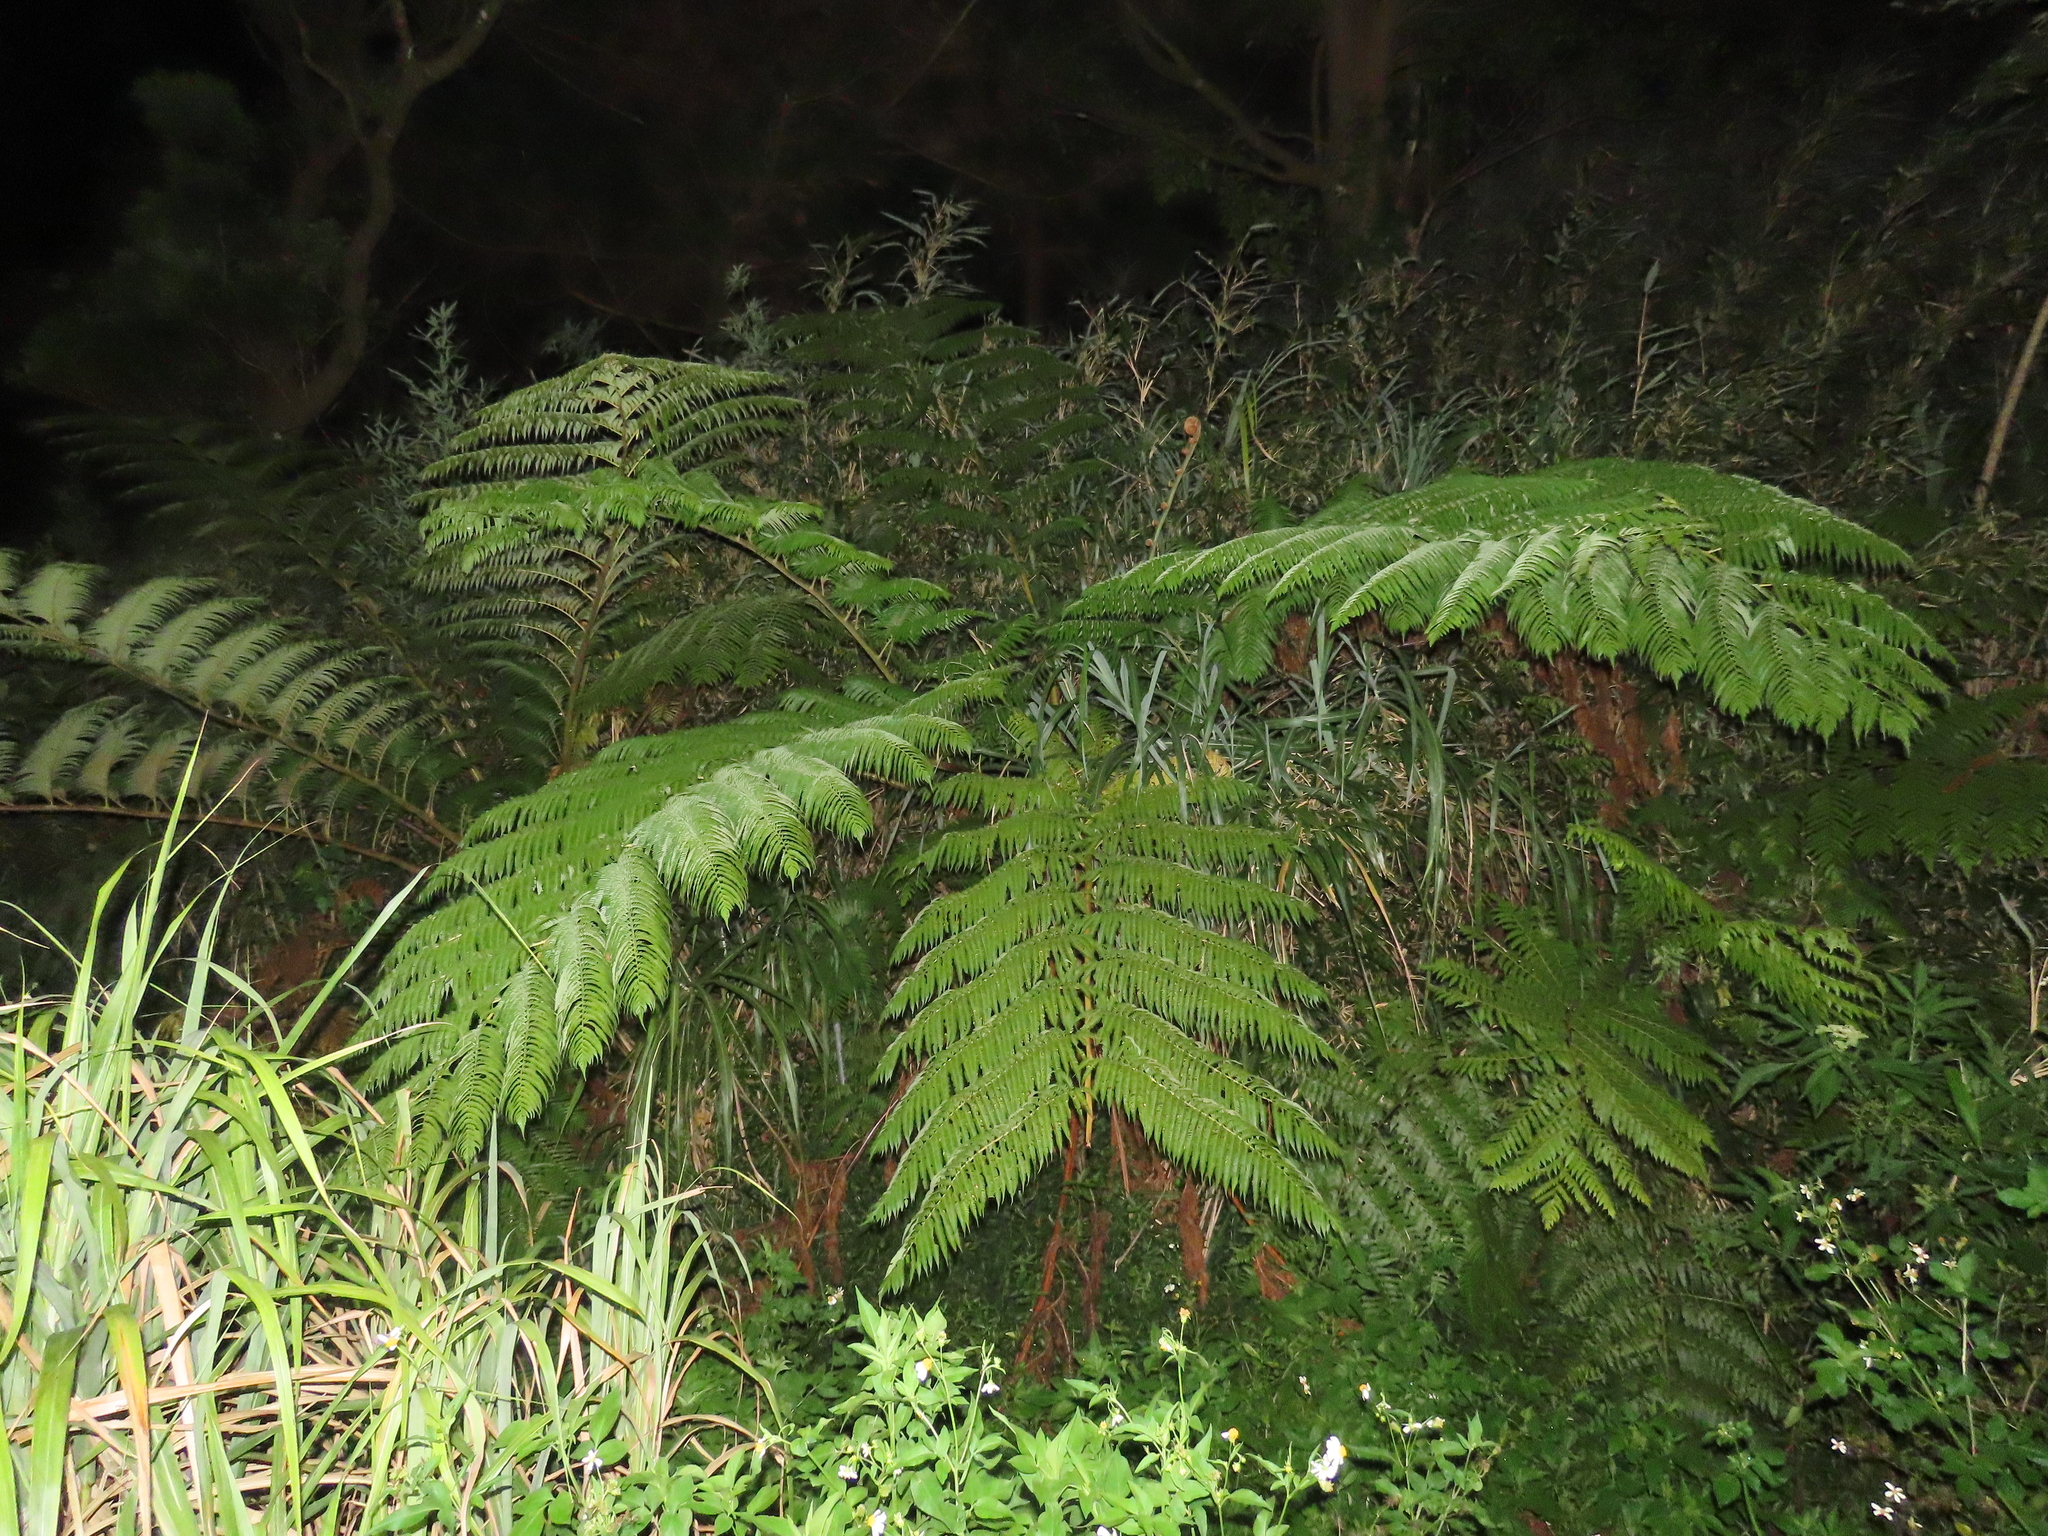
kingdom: Plantae
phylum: Tracheophyta
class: Polypodiopsida
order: Cyatheales
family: Cyatheaceae
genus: Alsophila
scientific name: Alsophila lepifera
